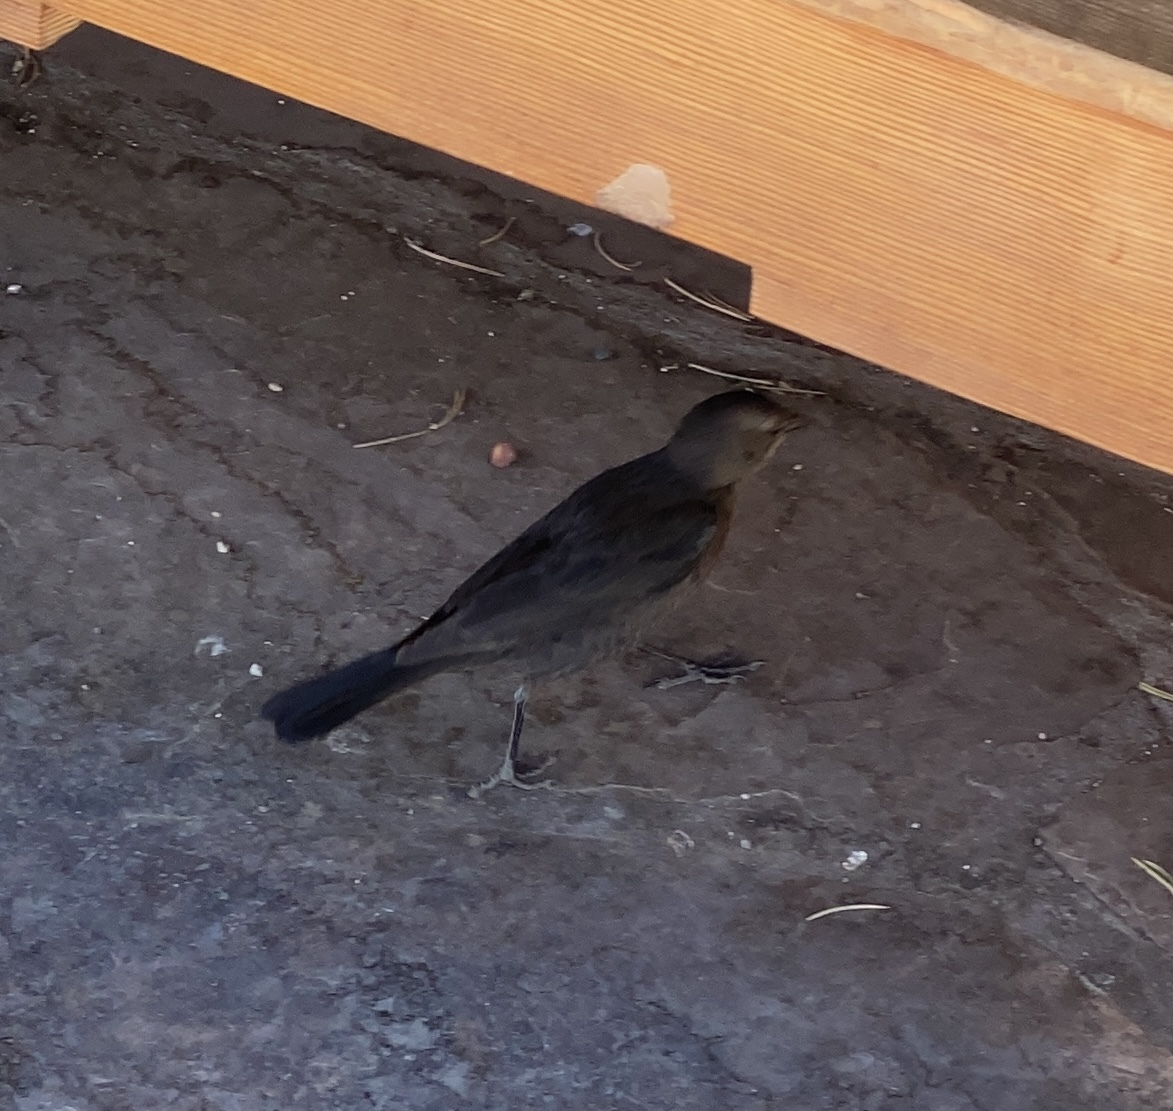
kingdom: Animalia
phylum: Chordata
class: Aves
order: Passeriformes
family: Icteridae
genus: Euphagus
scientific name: Euphagus cyanocephalus
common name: Brewer's blackbird
